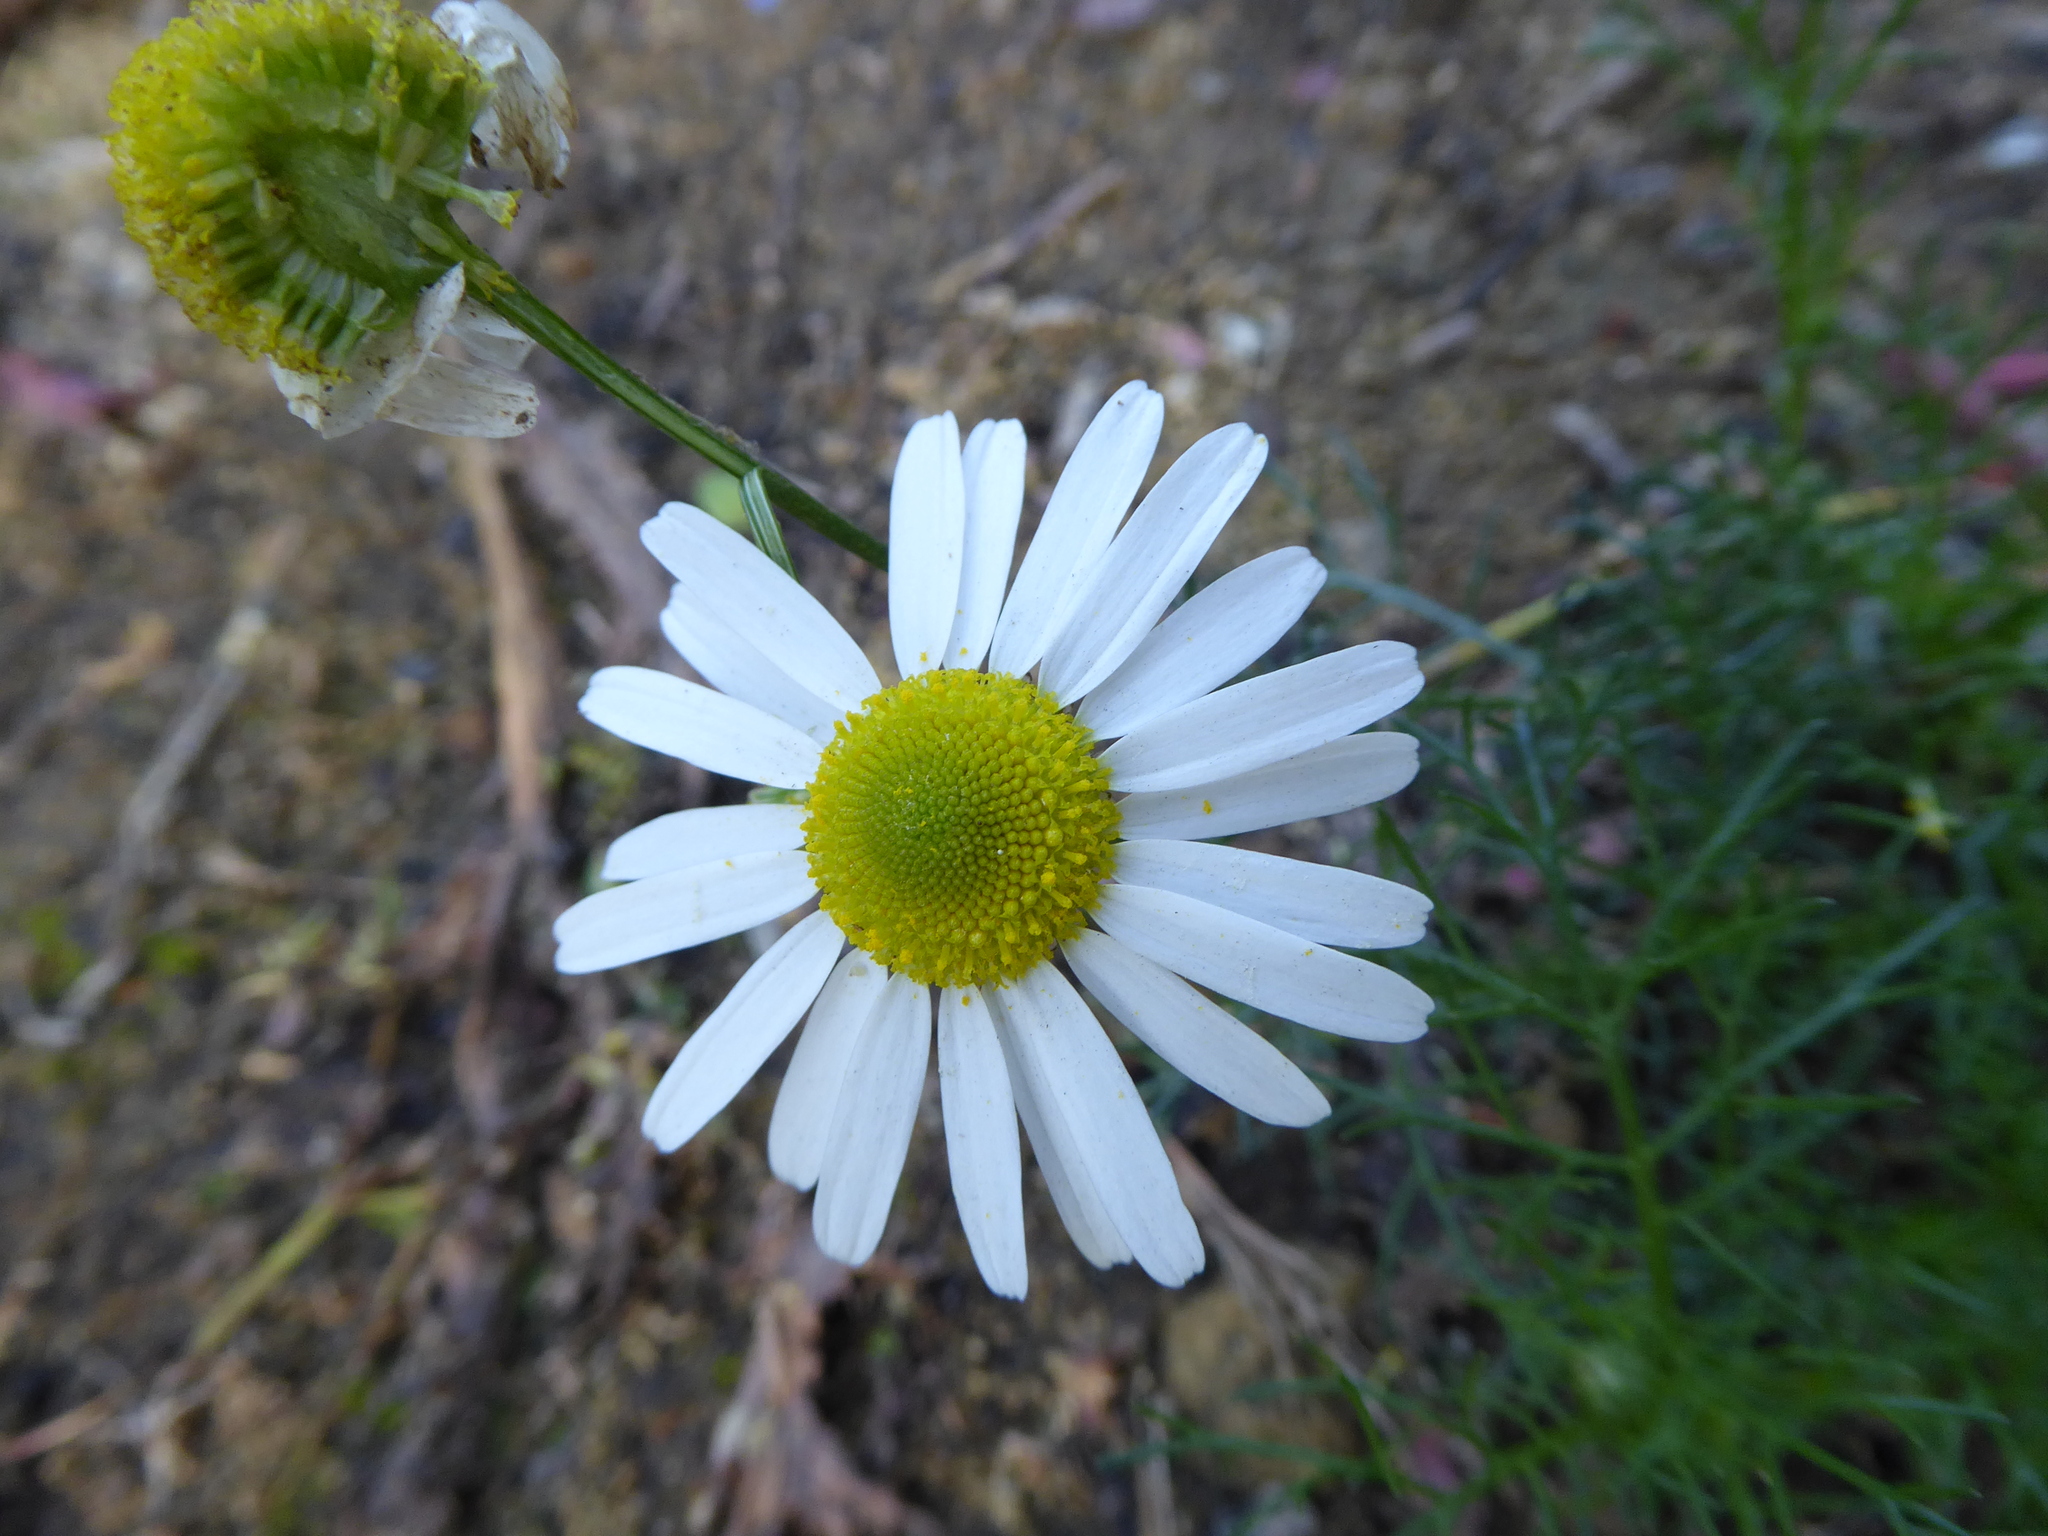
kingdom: Plantae
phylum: Tracheophyta
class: Magnoliopsida
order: Asterales
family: Asteraceae
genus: Tripleurospermum
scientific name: Tripleurospermum inodorum
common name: Scentless mayweed
